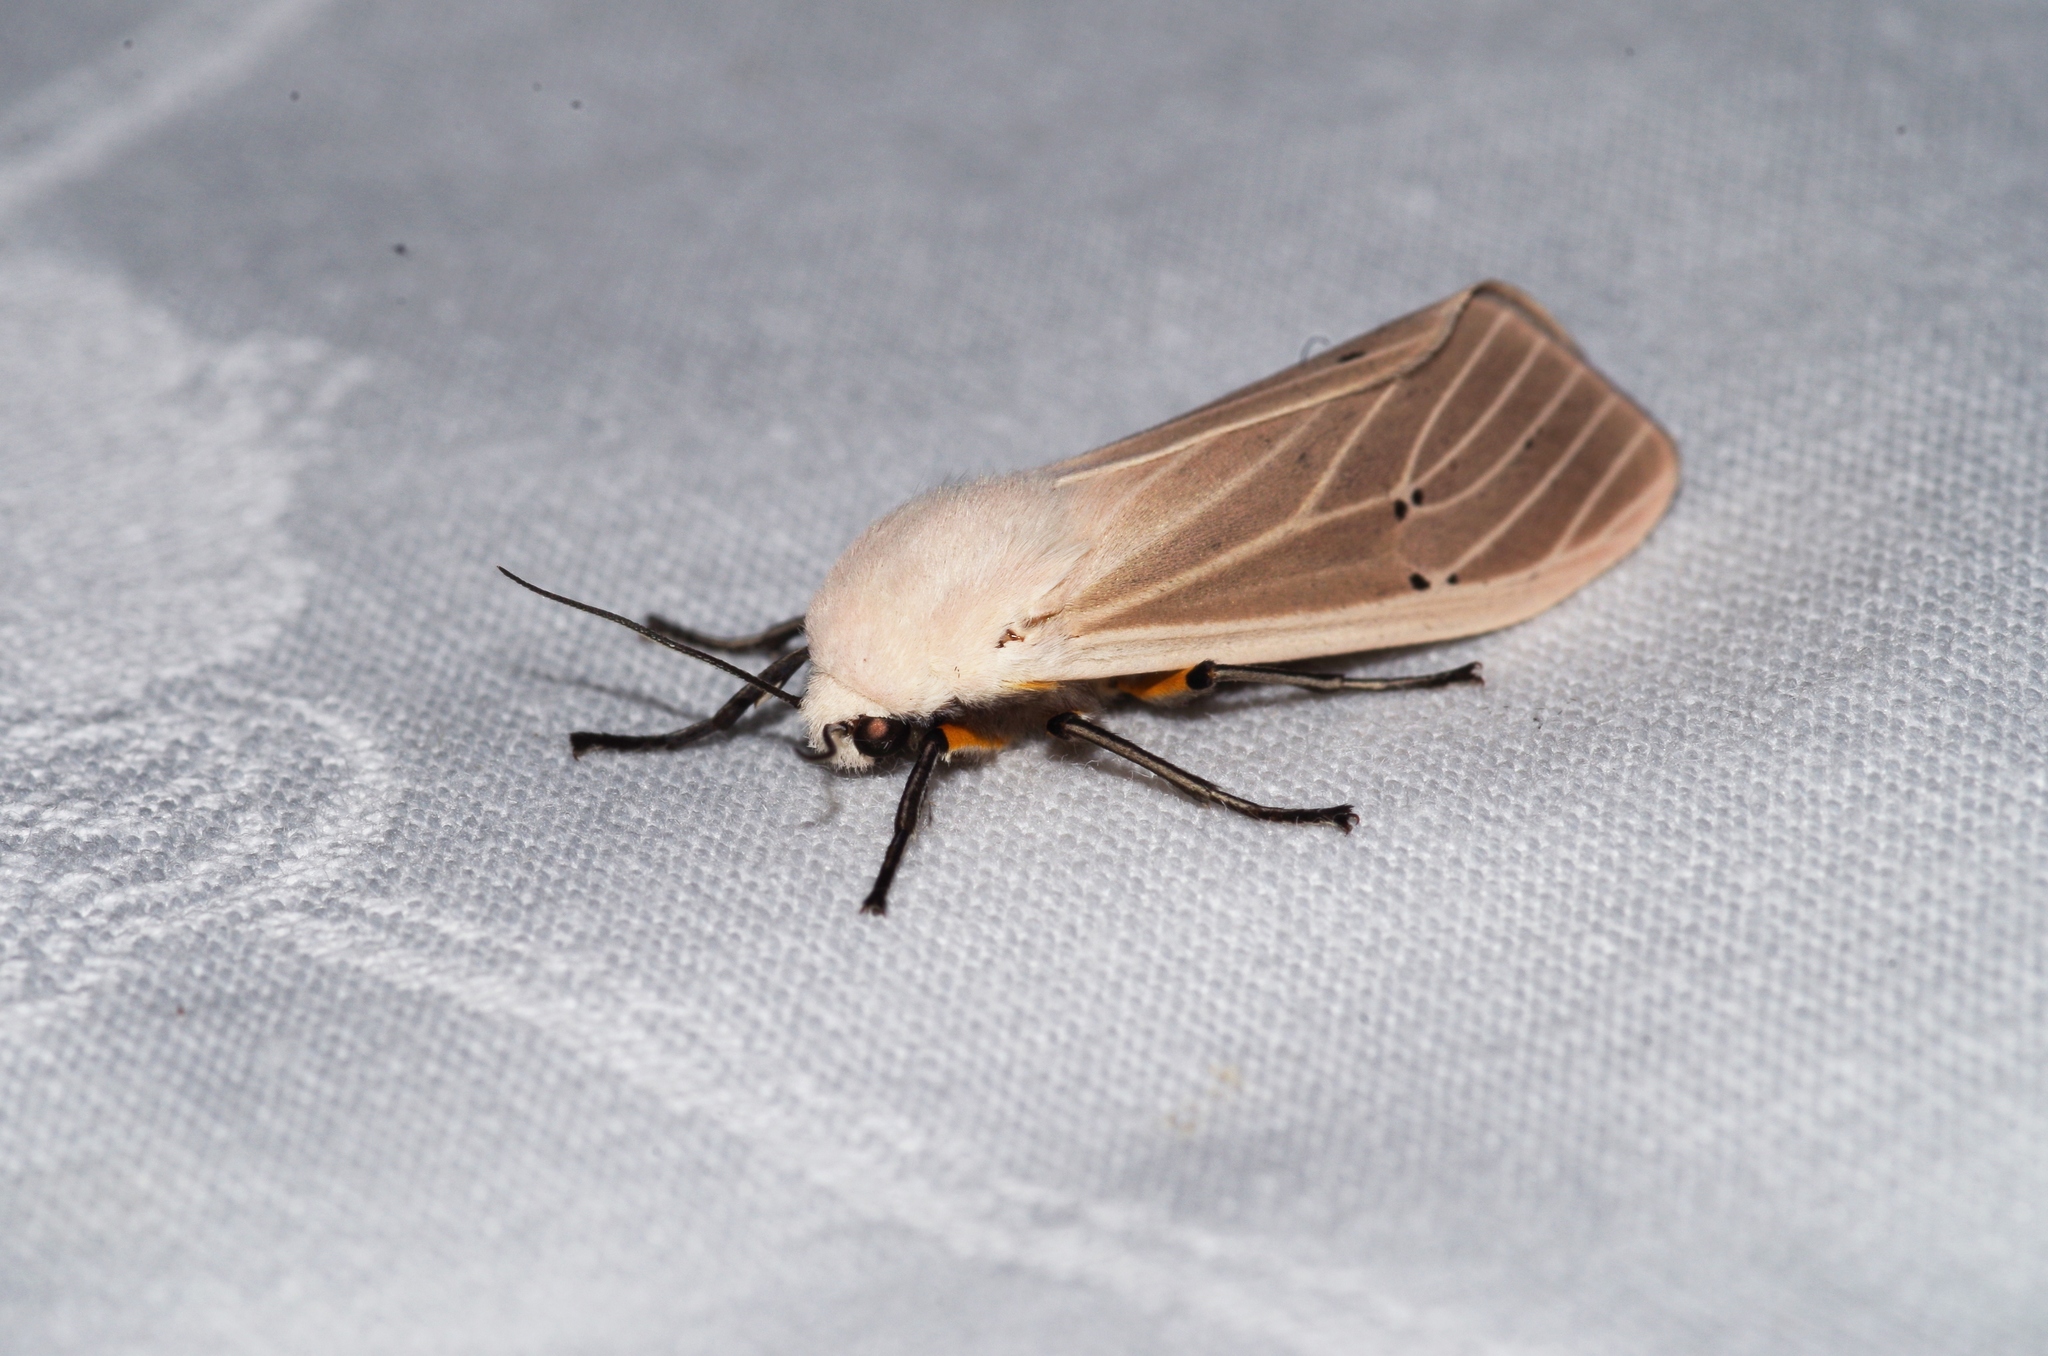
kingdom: Animalia
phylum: Arthropoda
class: Insecta
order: Lepidoptera
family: Erebidae
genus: Creatonotos
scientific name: Creatonotos transiens
